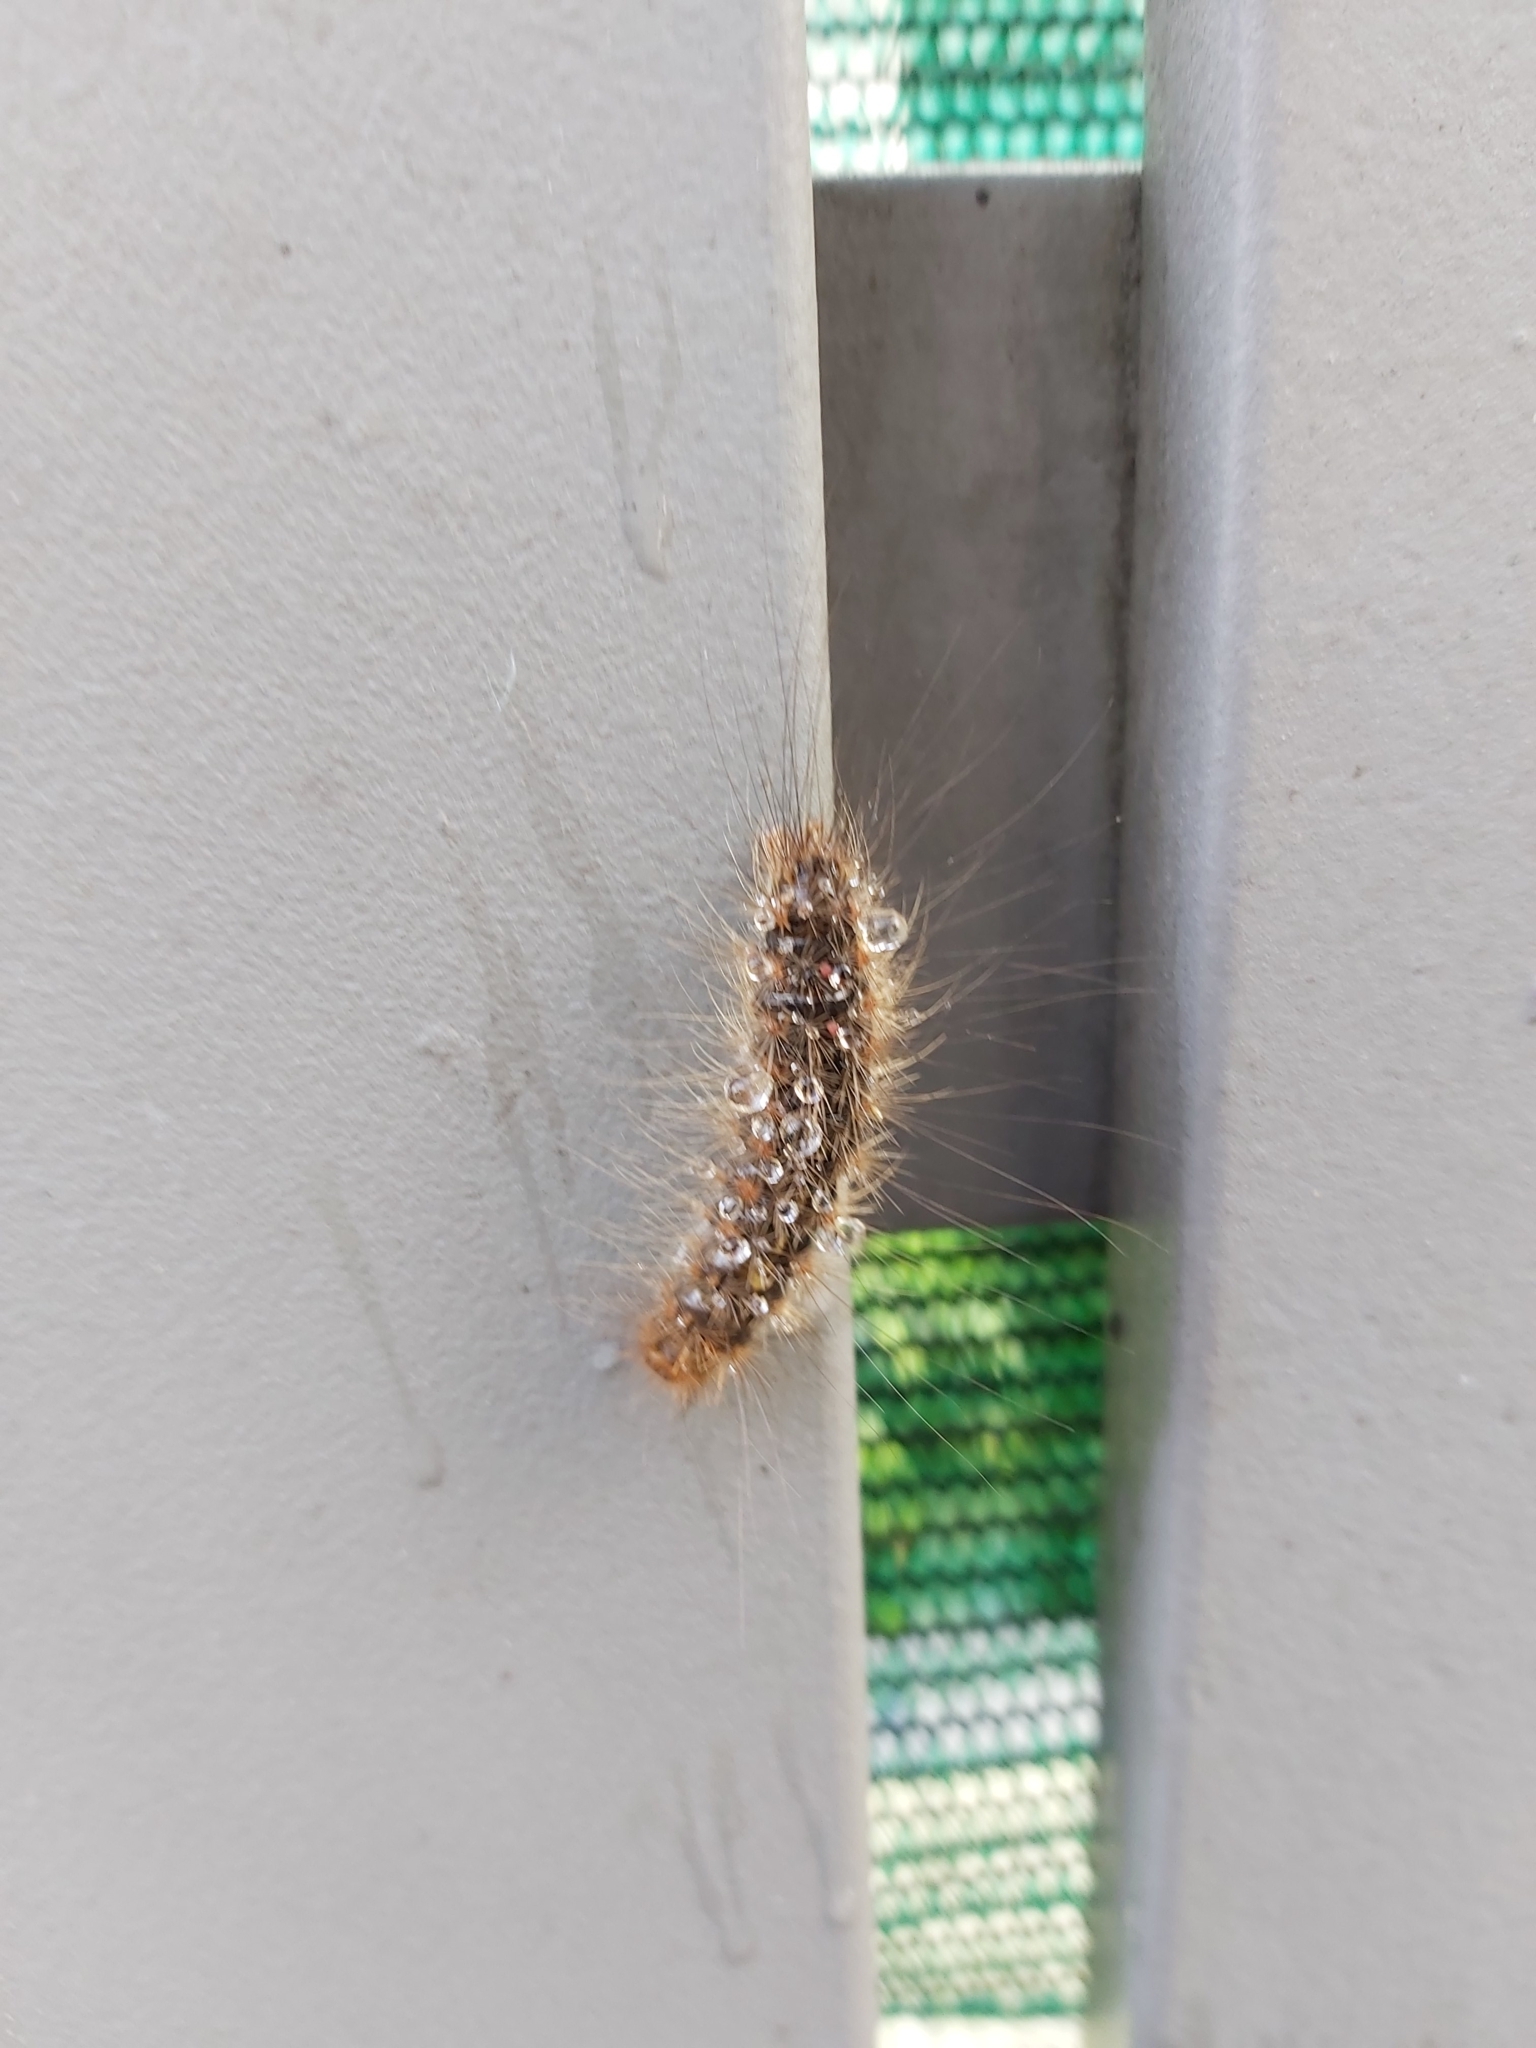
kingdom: Animalia
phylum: Arthropoda
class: Insecta
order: Lepidoptera
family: Erebidae
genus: Leptocneria
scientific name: Leptocneria reducta
